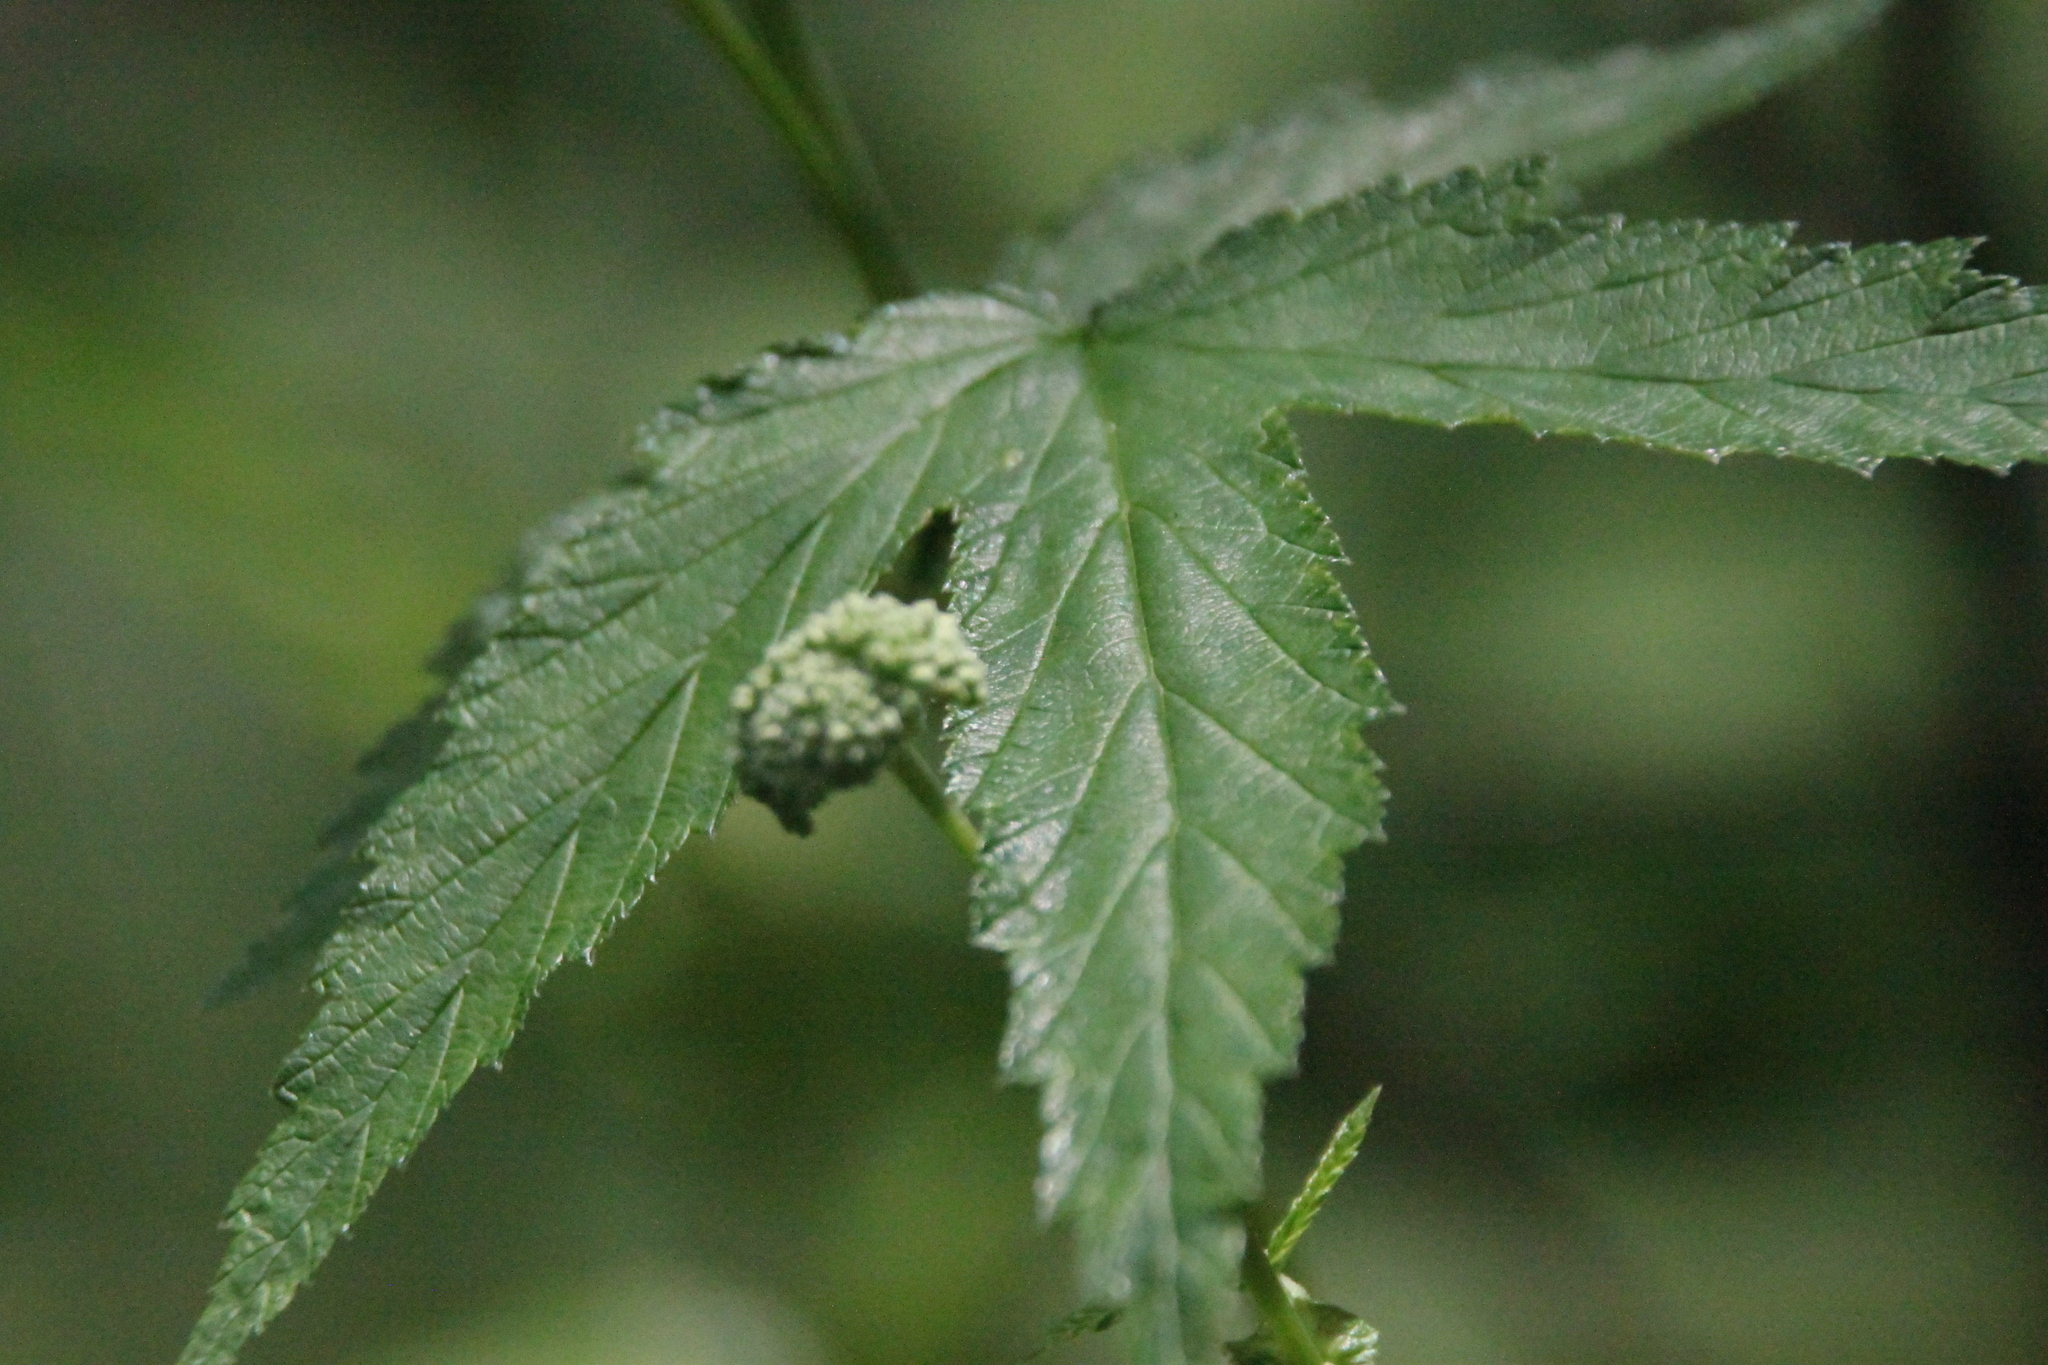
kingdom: Plantae
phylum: Tracheophyta
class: Magnoliopsida
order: Rosales
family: Rosaceae
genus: Filipendula
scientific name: Filipendula ulmaria
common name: Meadowsweet
